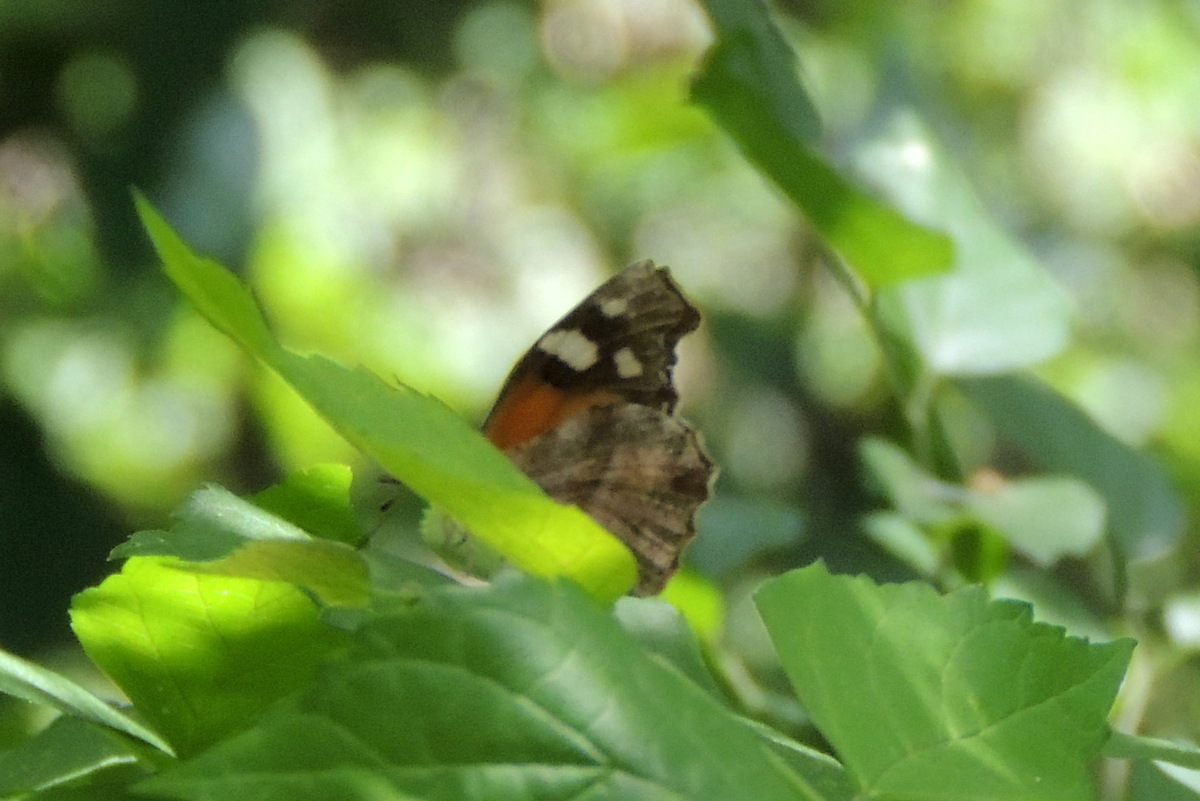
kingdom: Animalia
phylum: Arthropoda
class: Insecta
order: Lepidoptera
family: Nymphalidae
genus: Libytheana
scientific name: Libytheana carinenta
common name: American snout
